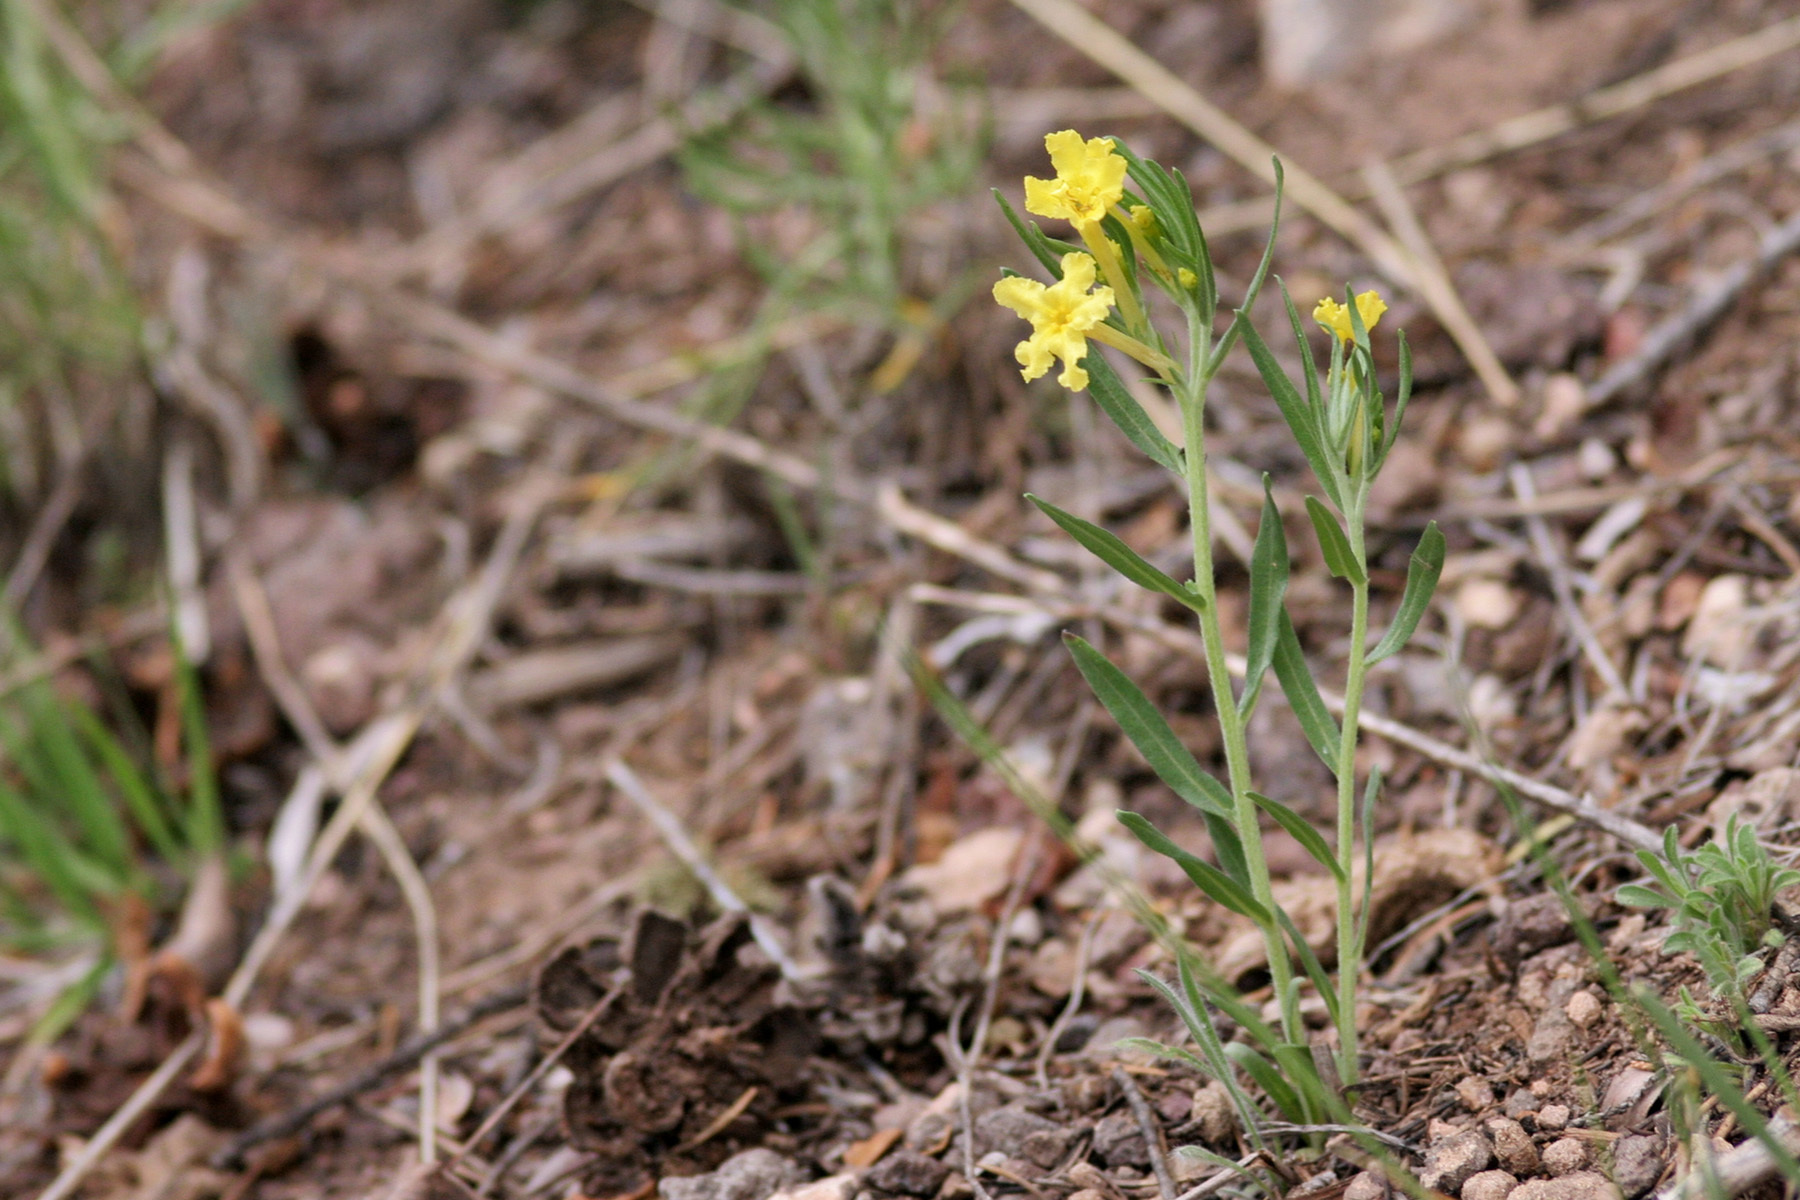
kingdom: Plantae
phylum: Tracheophyta
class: Magnoliopsida
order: Boraginales
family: Boraginaceae
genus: Lithospermum
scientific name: Lithospermum incisum
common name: Fringed gromwell
